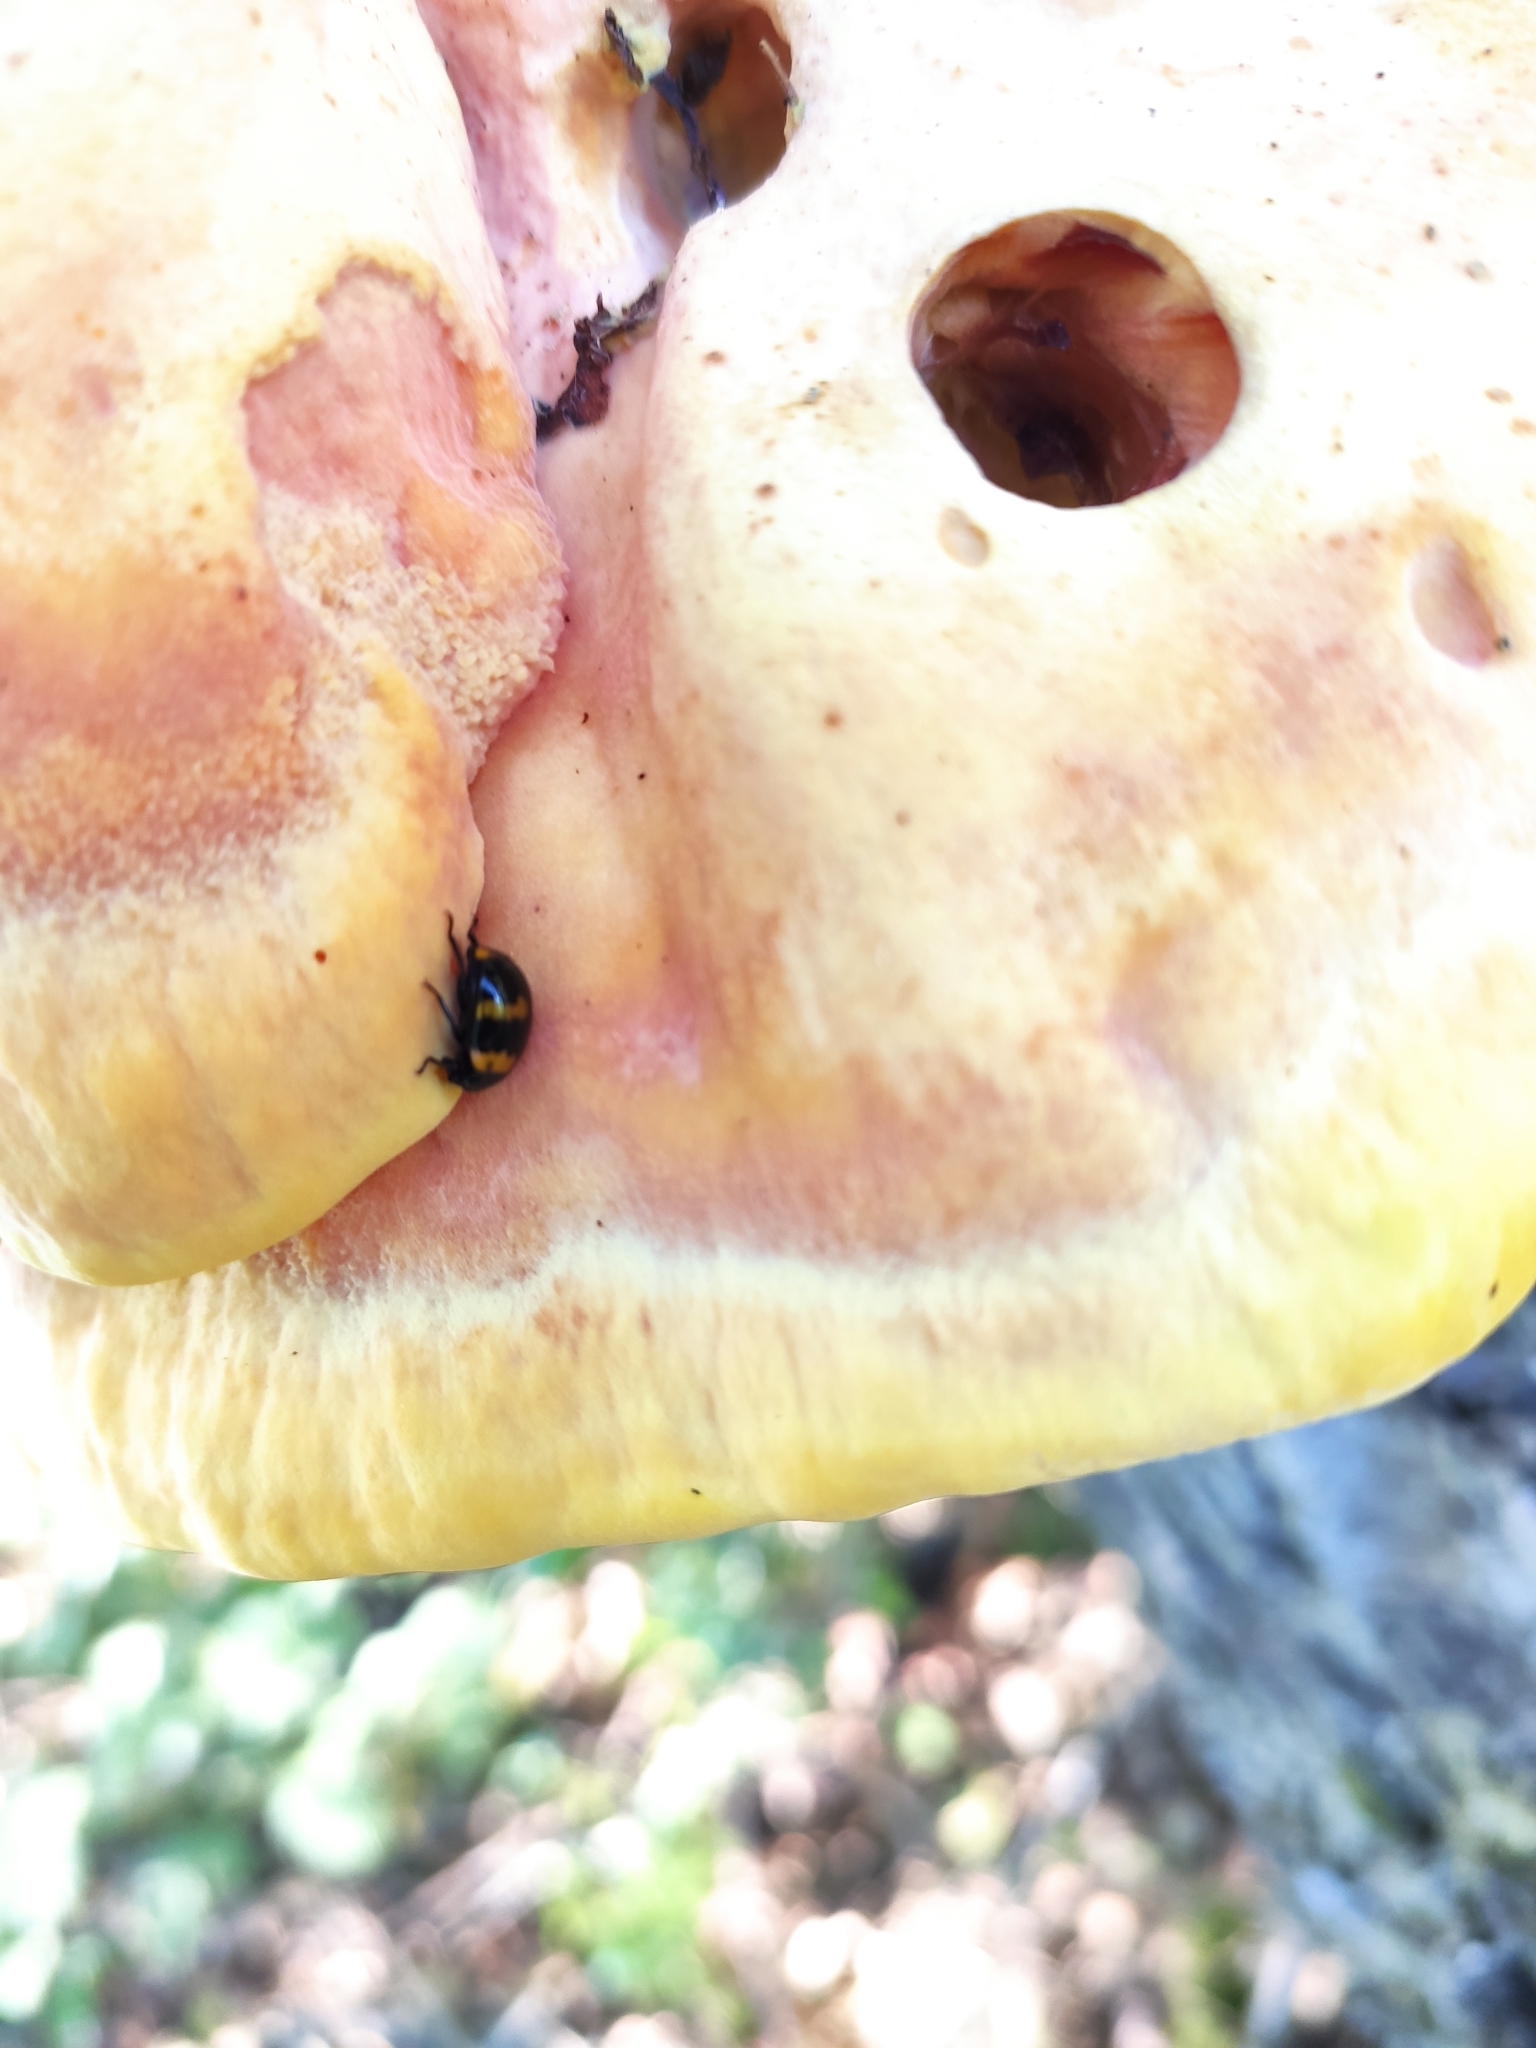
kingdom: Animalia
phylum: Arthropoda
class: Insecta
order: Coleoptera
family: Tenebrionidae
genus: Diaperis
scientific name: Diaperis boleti
